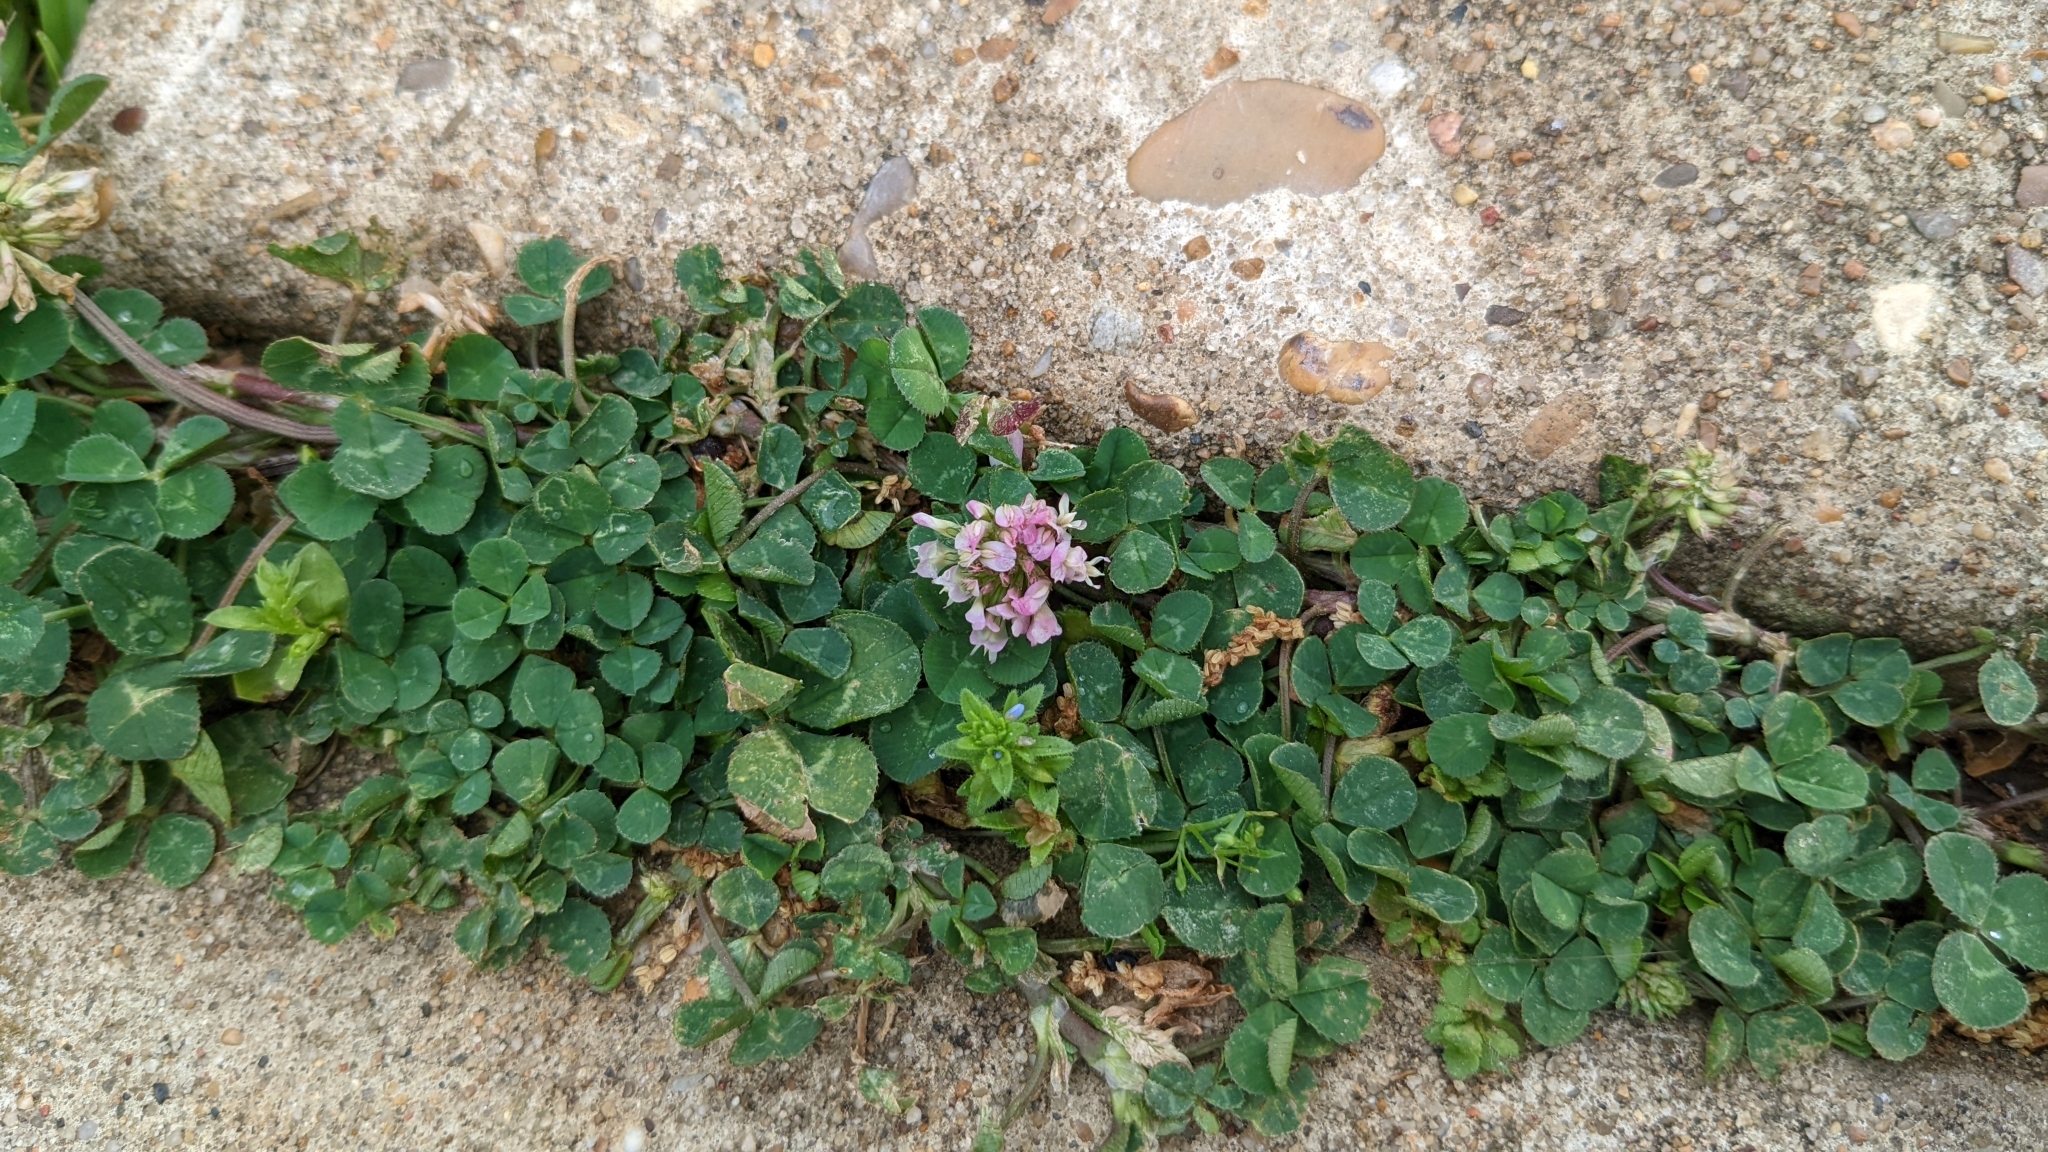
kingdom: Plantae
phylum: Tracheophyta
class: Magnoliopsida
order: Fabales
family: Fabaceae
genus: Trifolium
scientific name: Trifolium repens
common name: White clover
